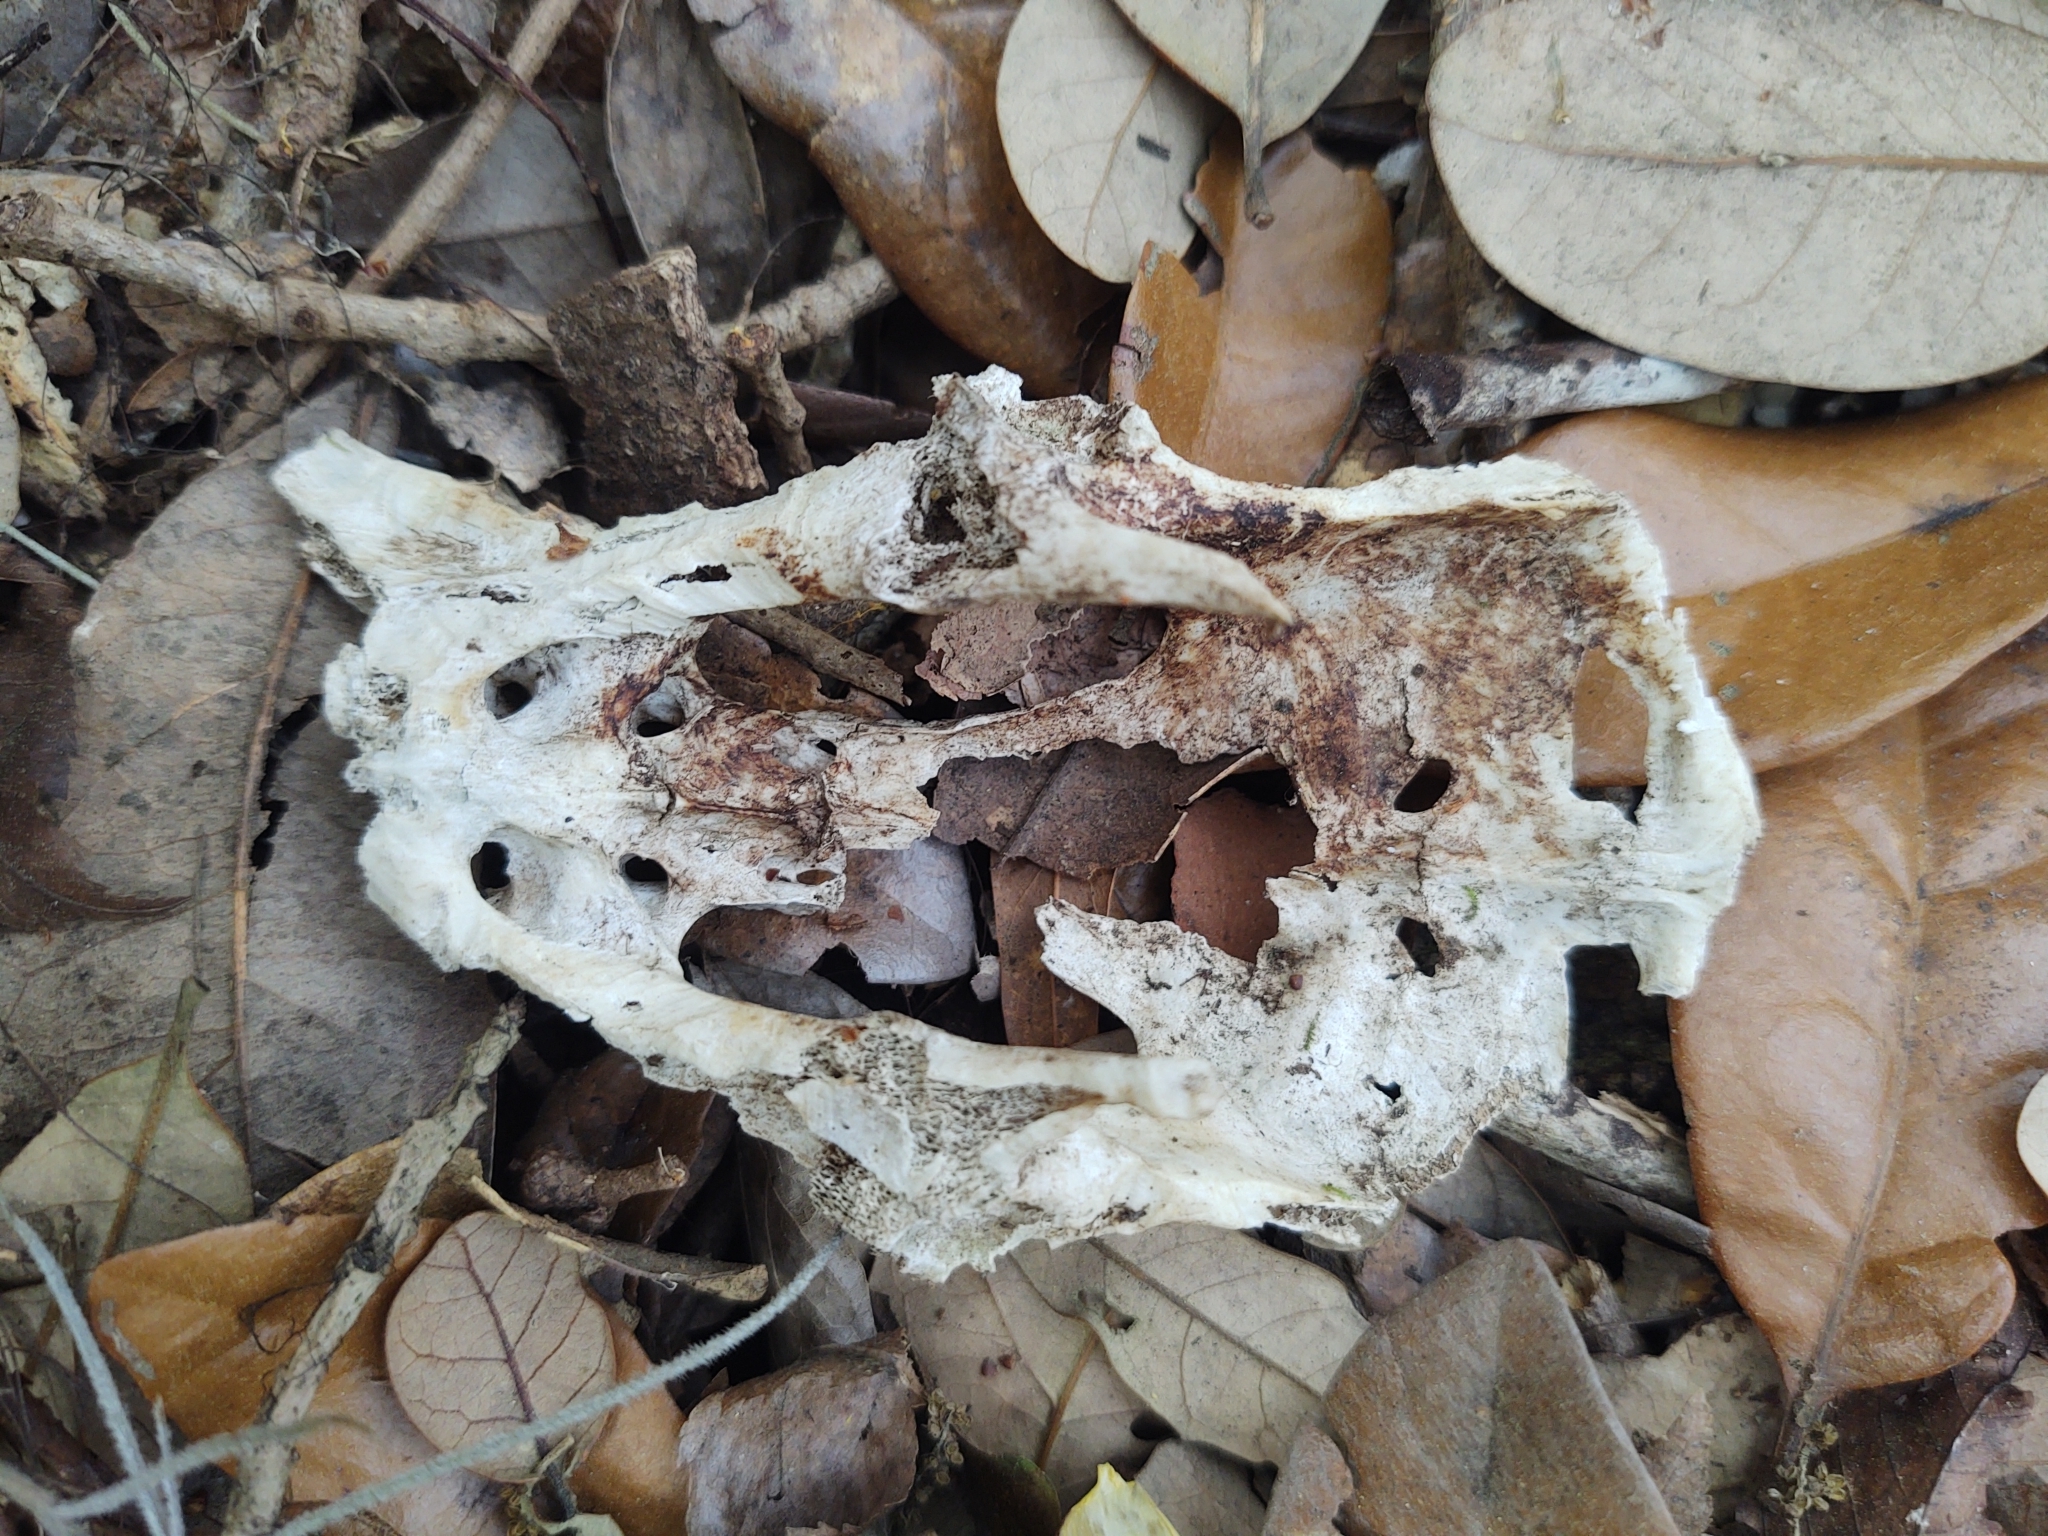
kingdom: Animalia
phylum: Chordata
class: Mammalia
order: Cingulata
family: Dasypodidae
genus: Dasypus
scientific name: Dasypus novemcinctus
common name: Nine-banded armadillo
